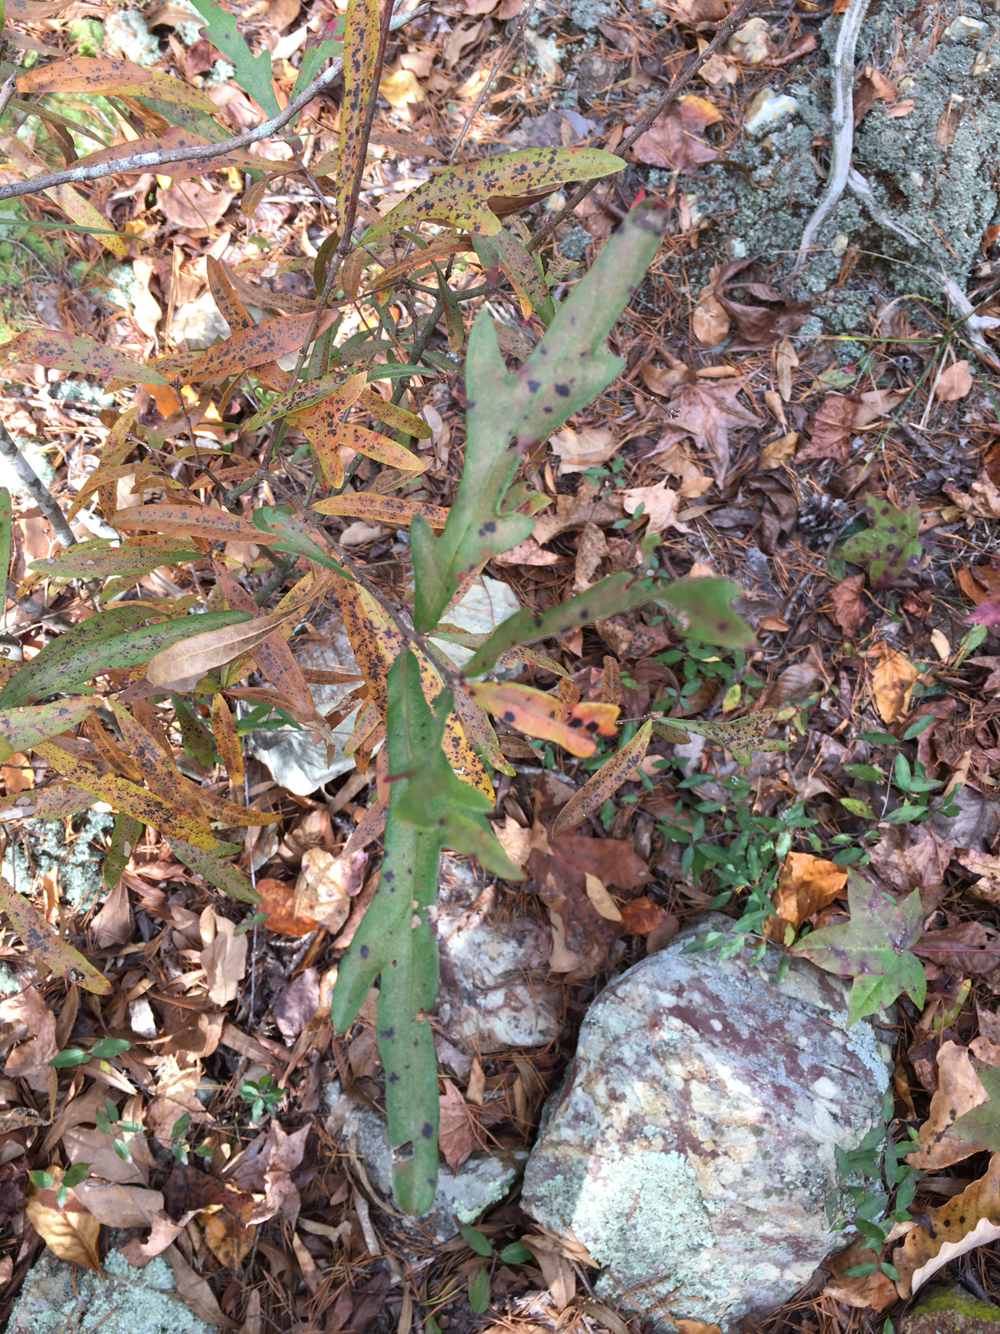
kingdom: Plantae
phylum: Tracheophyta
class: Magnoliopsida
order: Fagales
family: Fagaceae
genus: Quercus
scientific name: Quercus nigra
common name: Water oak
